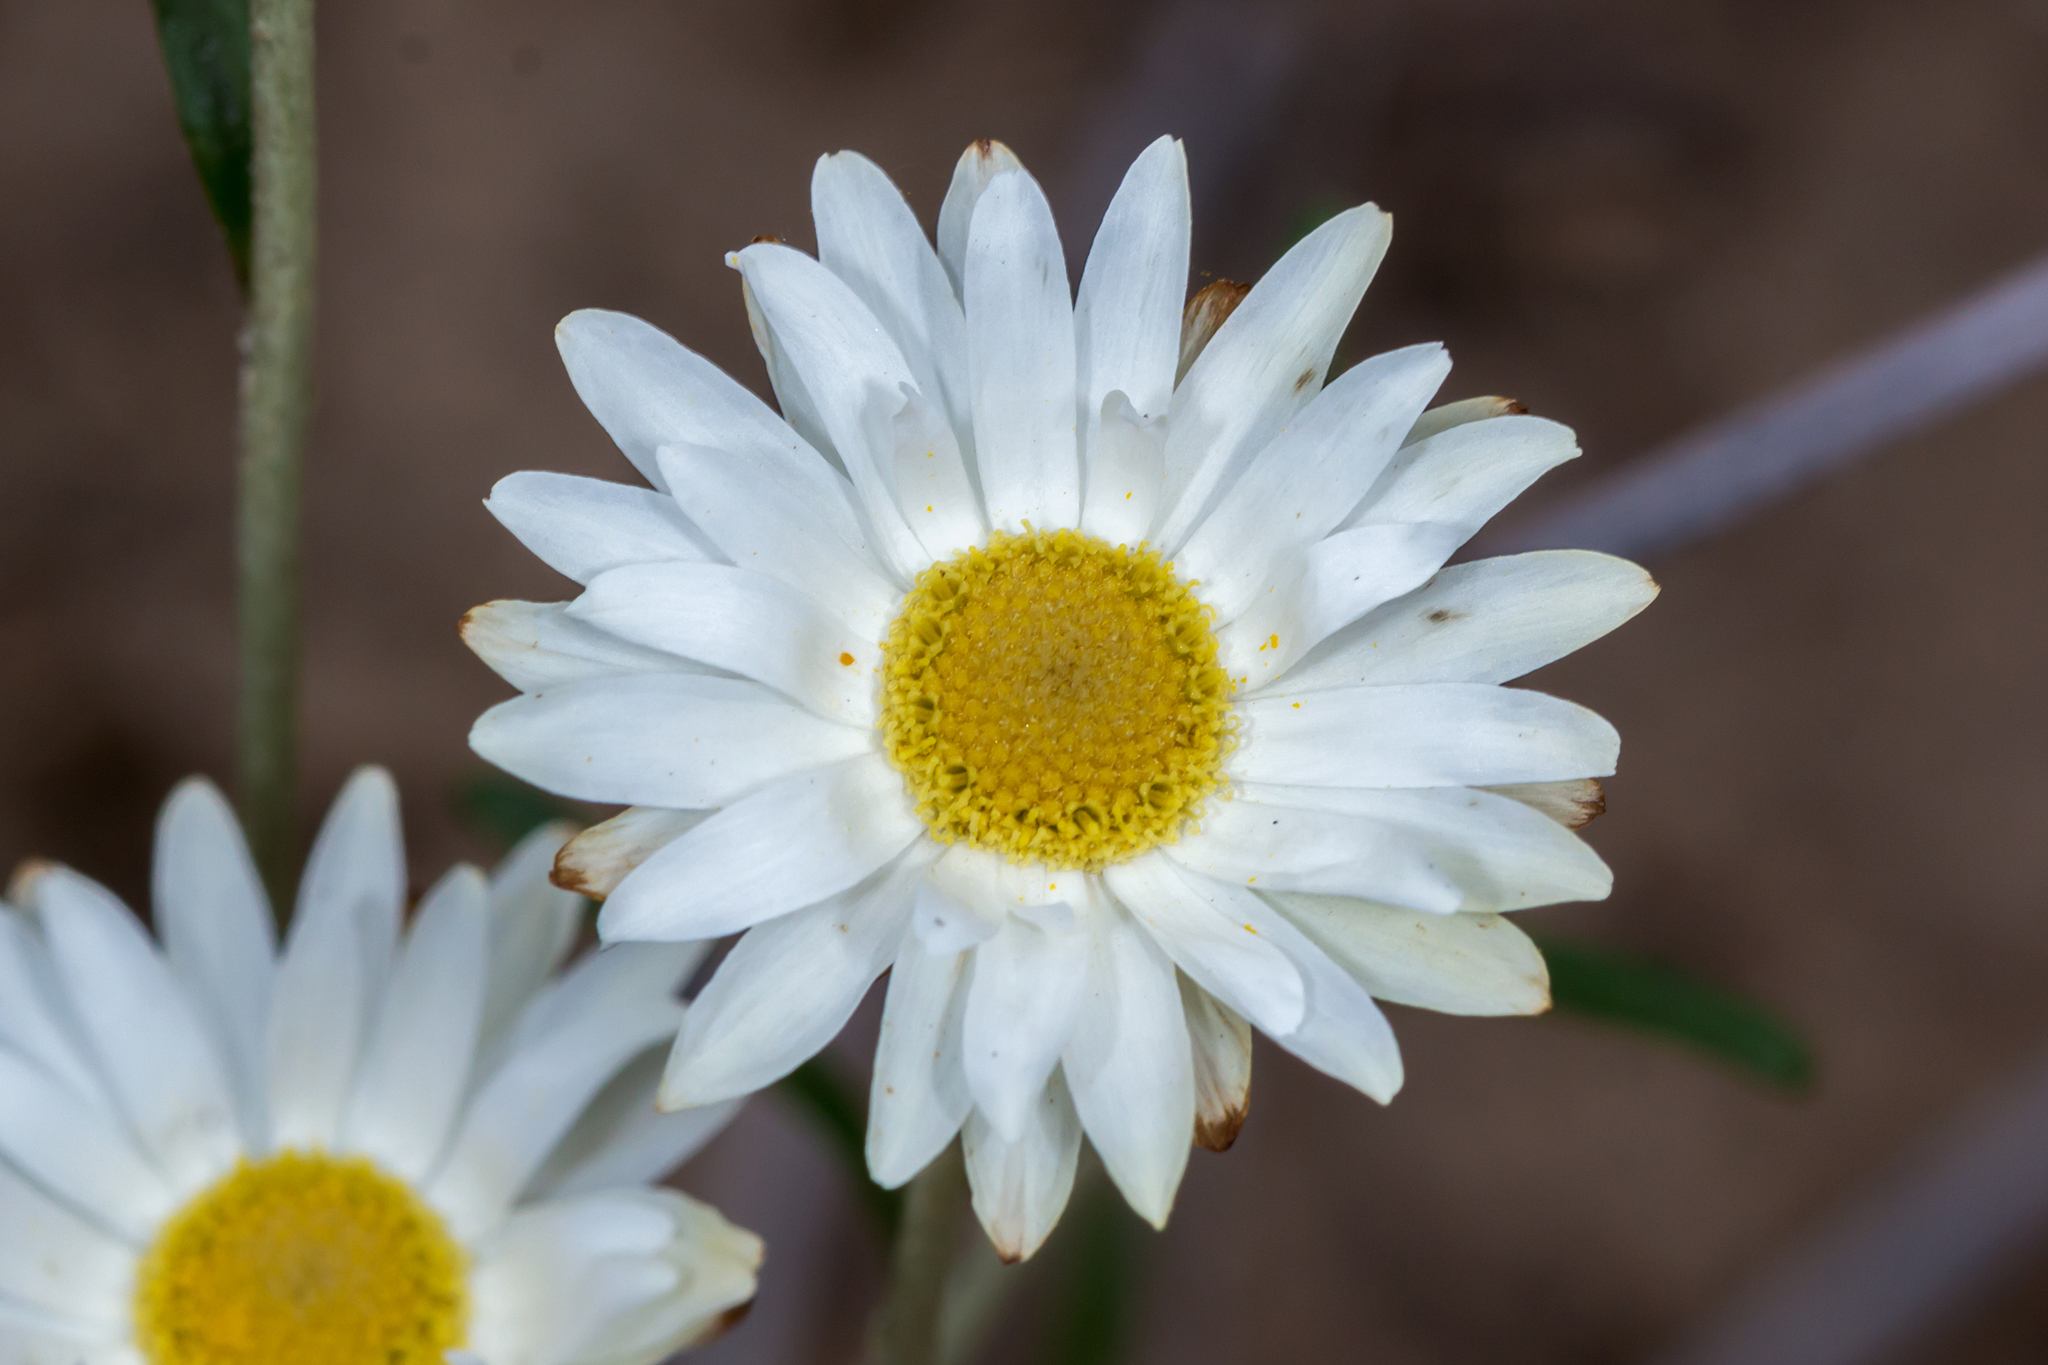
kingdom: Plantae
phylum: Tracheophyta
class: Magnoliopsida
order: Asterales
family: Asteraceae
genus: Argentipallium
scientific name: Argentipallium obtusifolium
